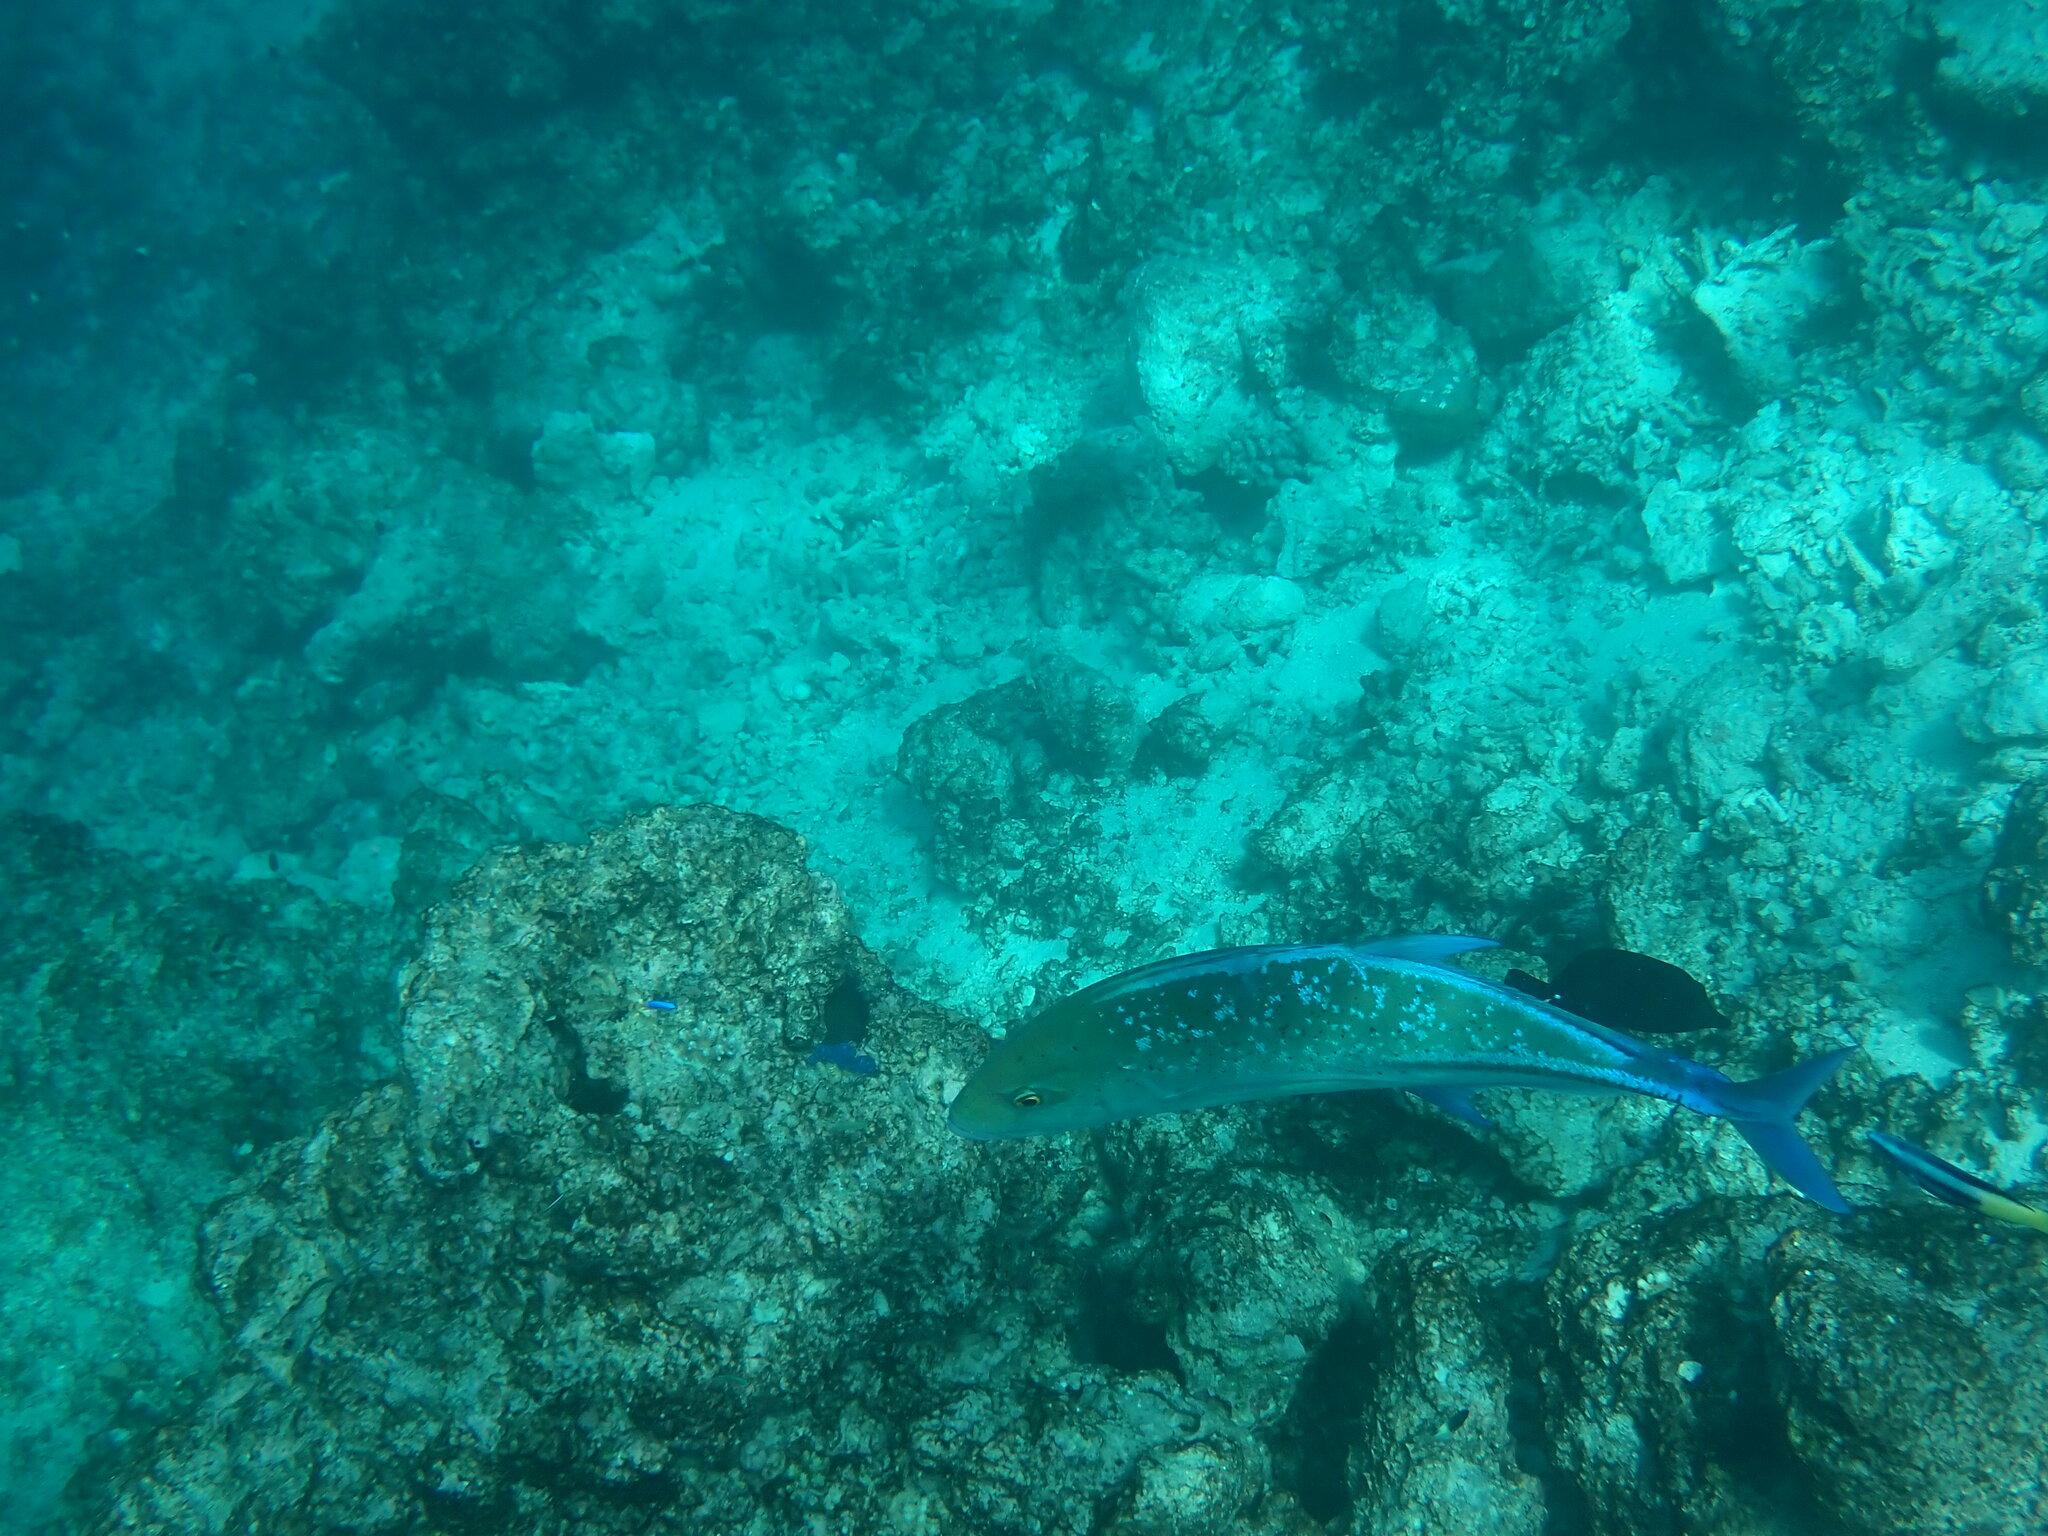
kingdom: Animalia
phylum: Chordata
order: Perciformes
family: Carangidae
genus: Caranx
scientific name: Caranx melampygus
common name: Bluefin trevally
